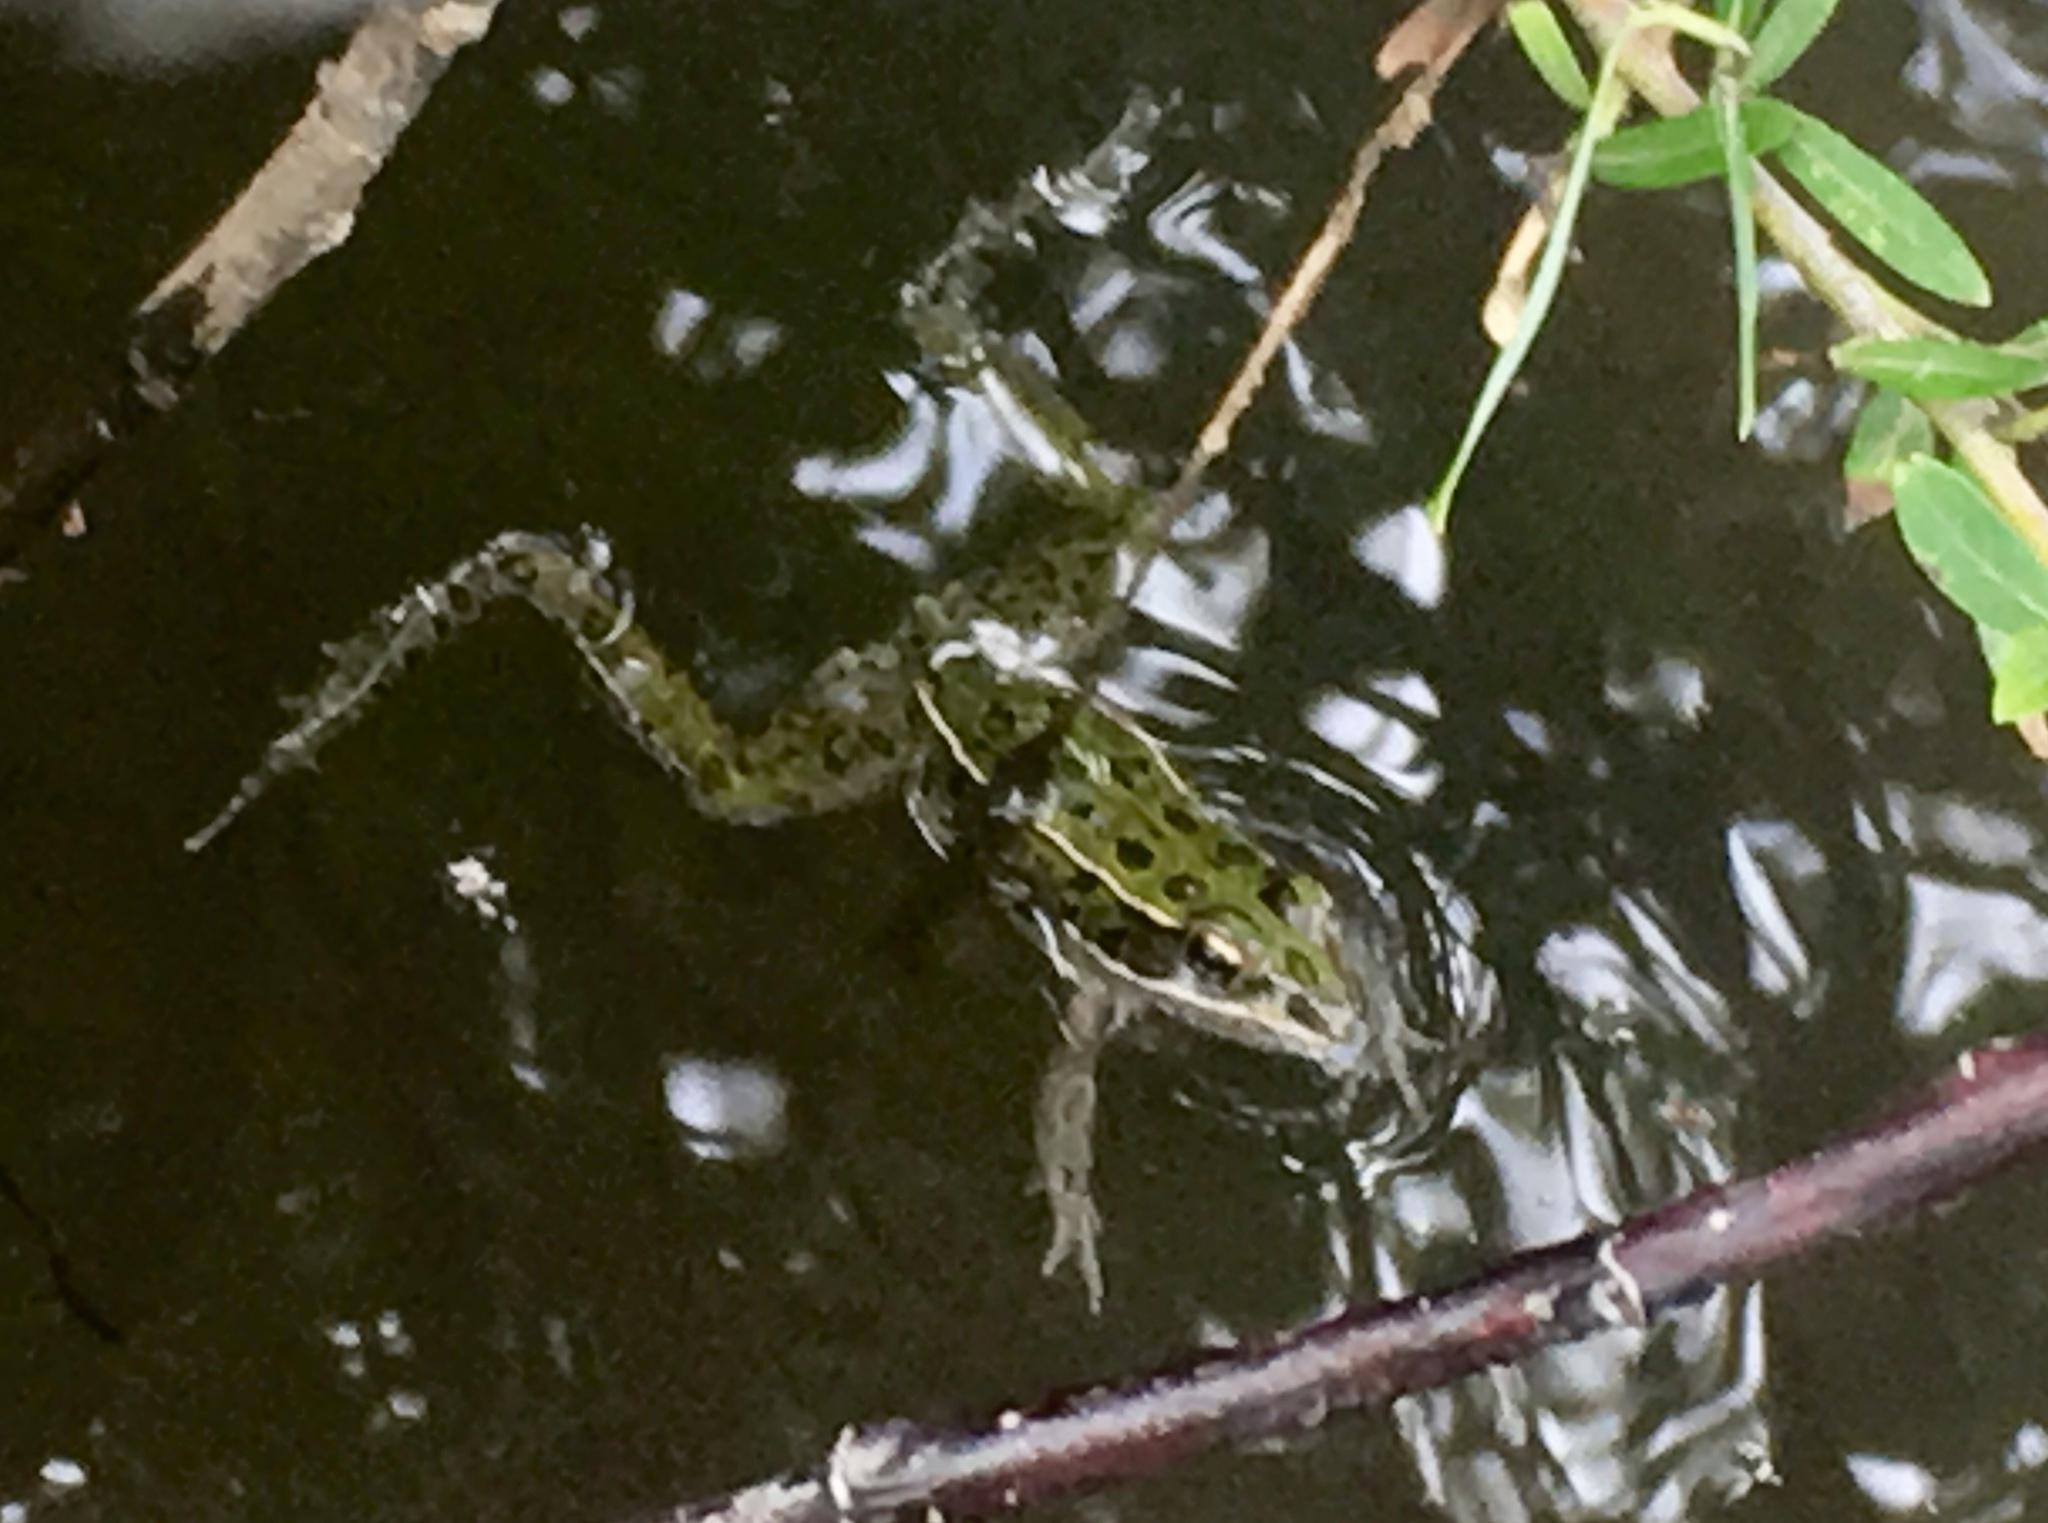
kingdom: Animalia
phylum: Chordata
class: Amphibia
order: Anura
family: Ranidae
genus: Lithobates
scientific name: Lithobates pipiens
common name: Northern leopard frog
